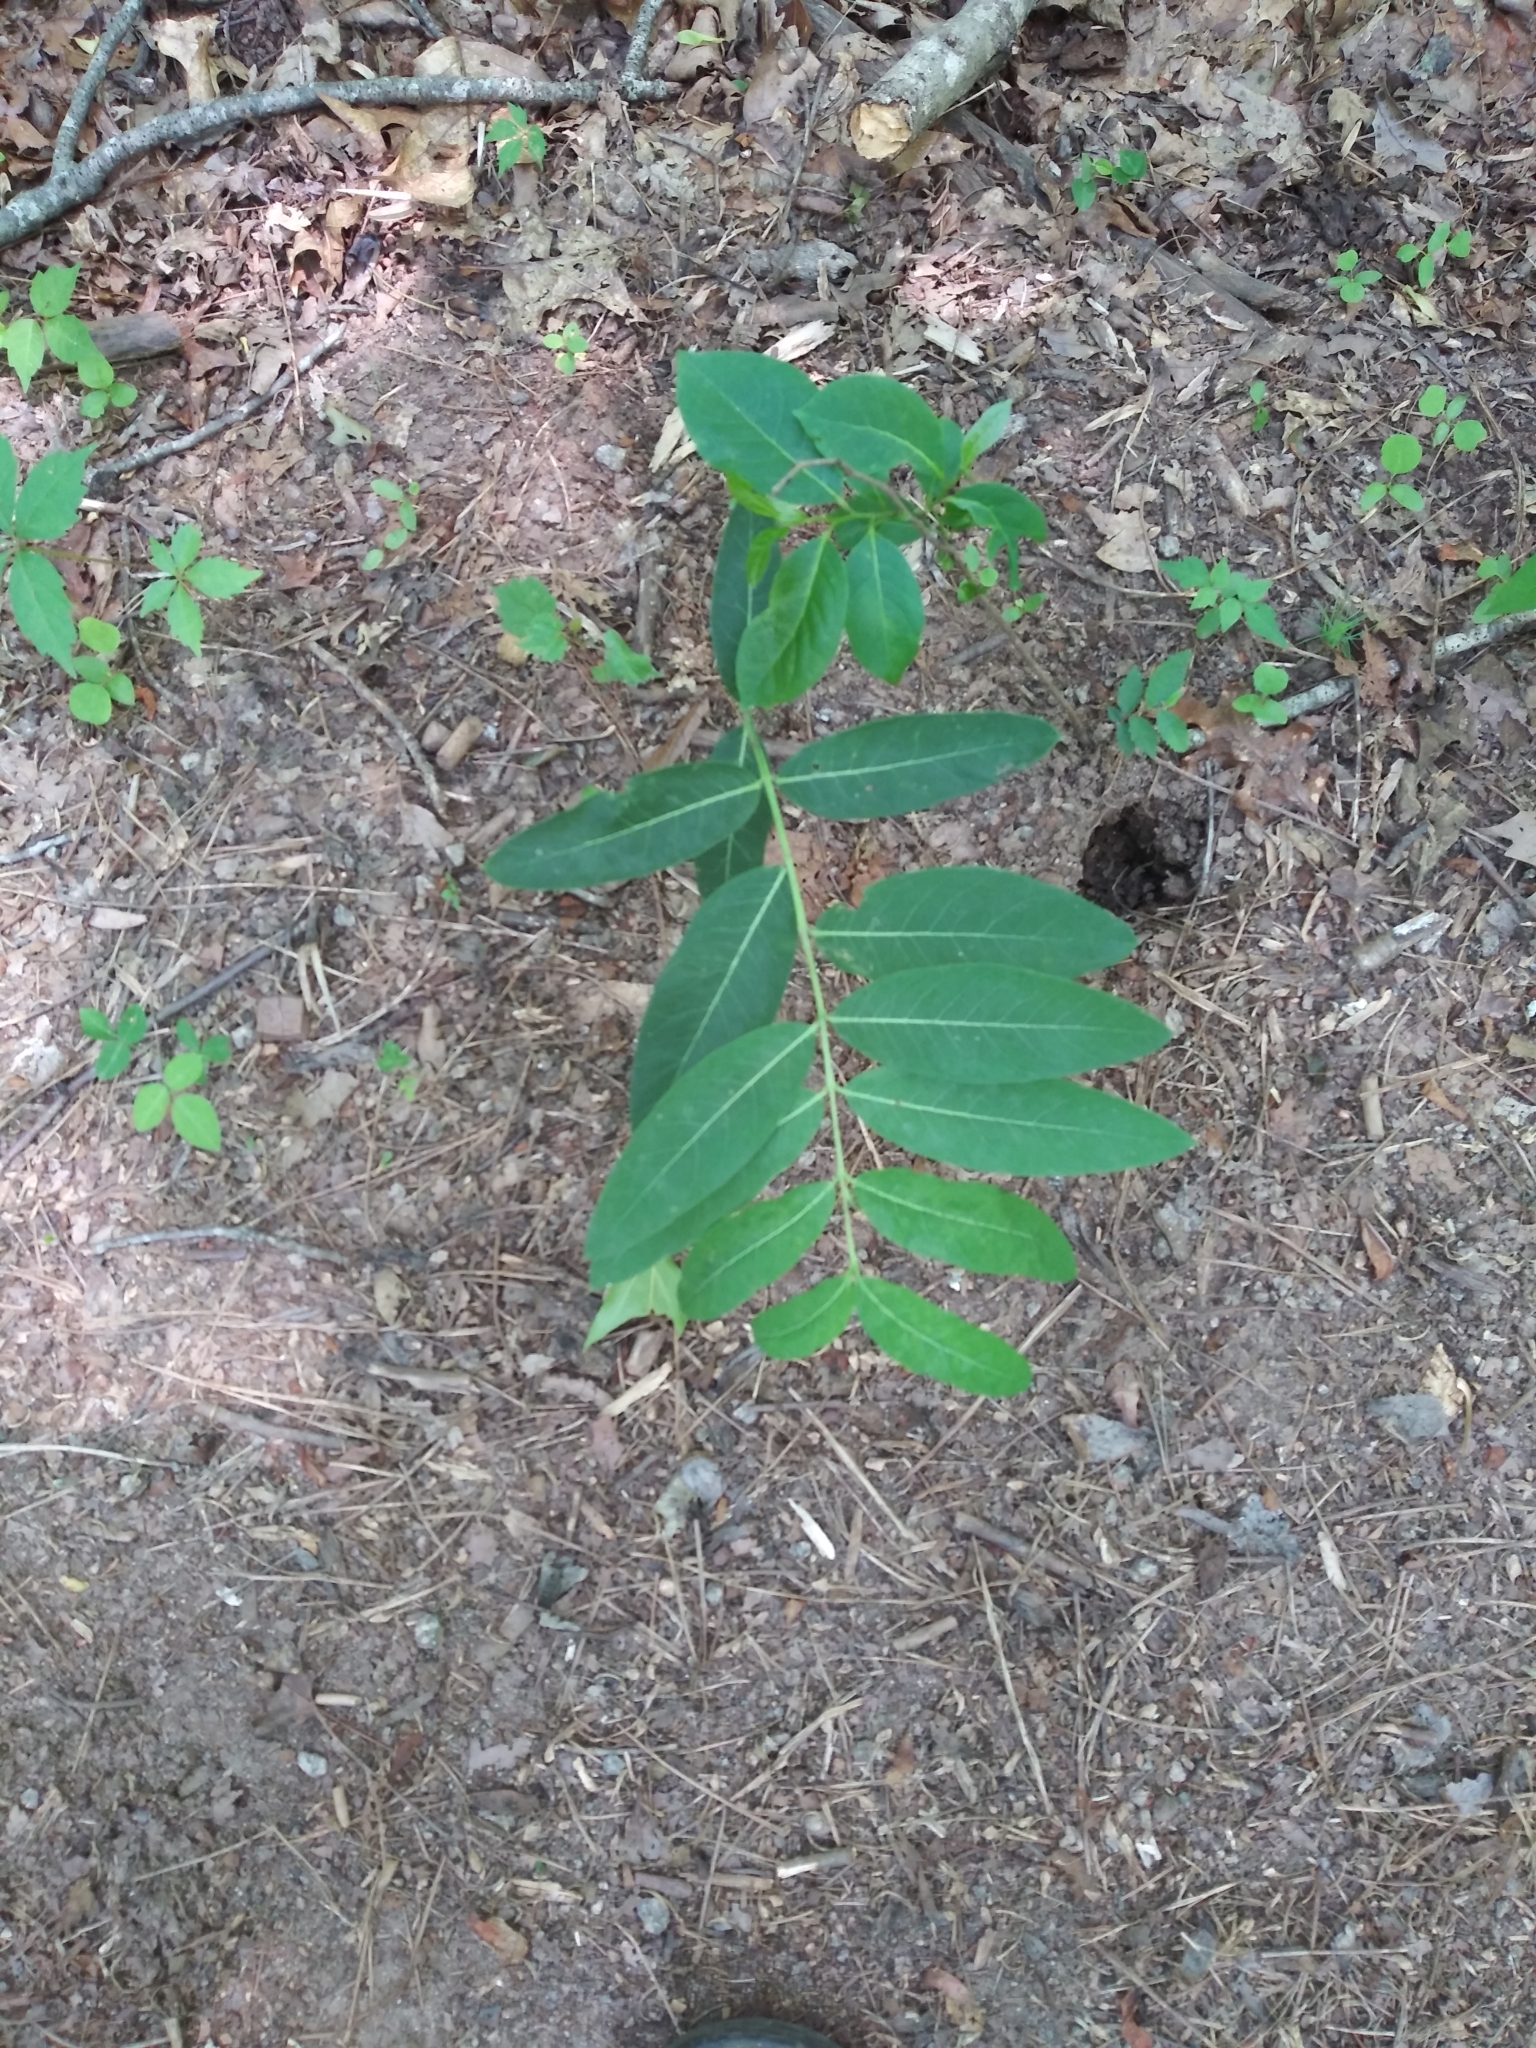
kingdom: Plantae
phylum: Tracheophyta
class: Magnoliopsida
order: Gentianales
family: Apocynaceae
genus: Apocynum
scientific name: Apocynum cannabinum
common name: Hemp dogbane
